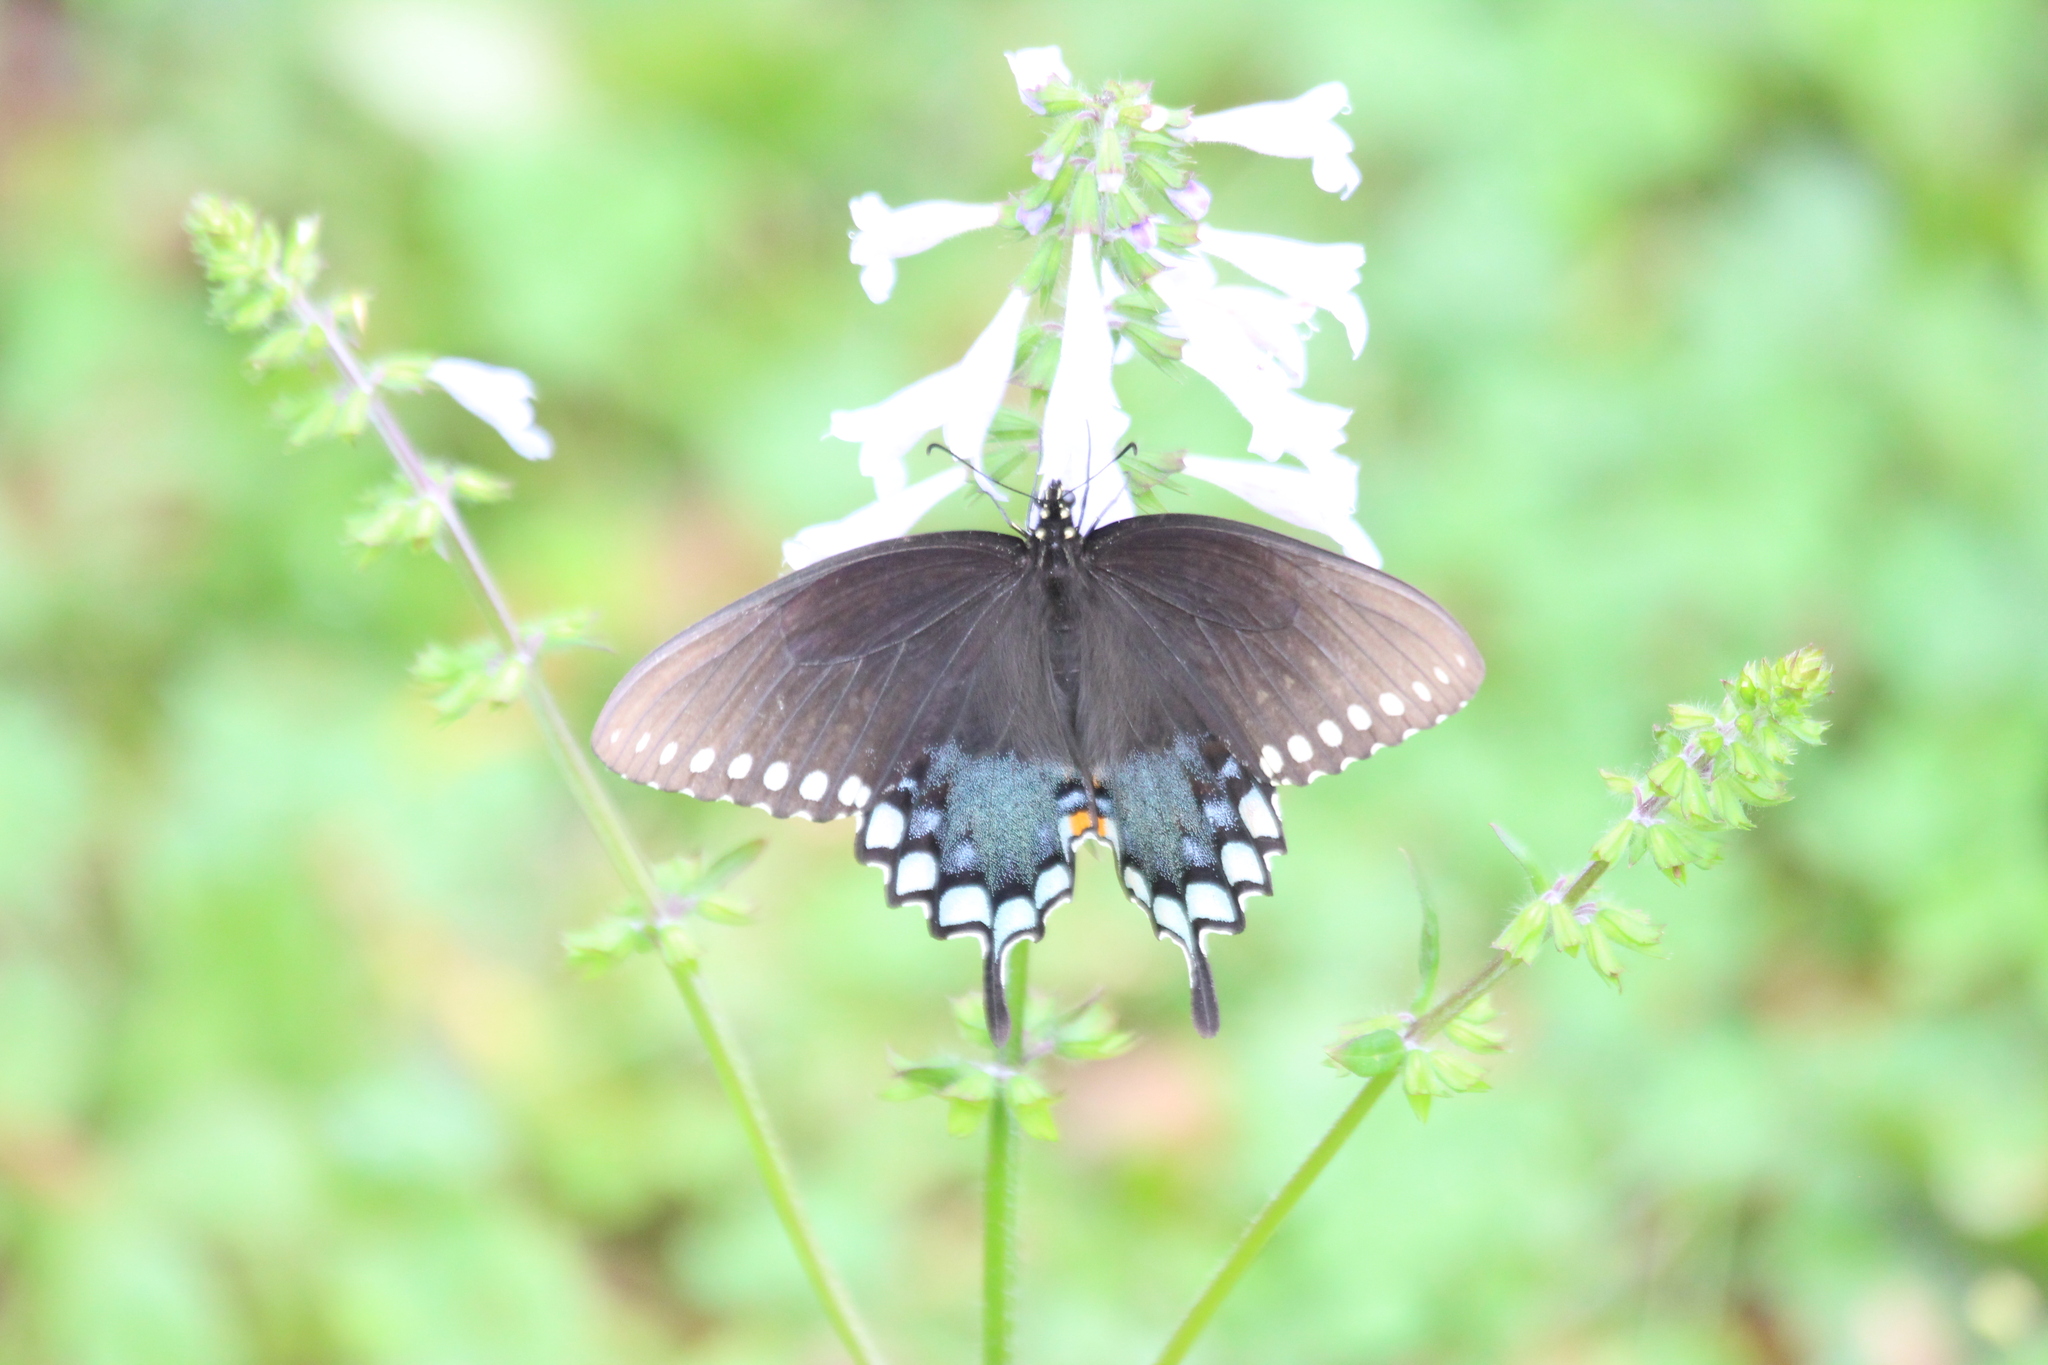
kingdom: Animalia
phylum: Arthropoda
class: Insecta
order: Lepidoptera
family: Papilionidae
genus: Papilio
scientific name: Papilio troilus
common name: Spicebush swallowtail
